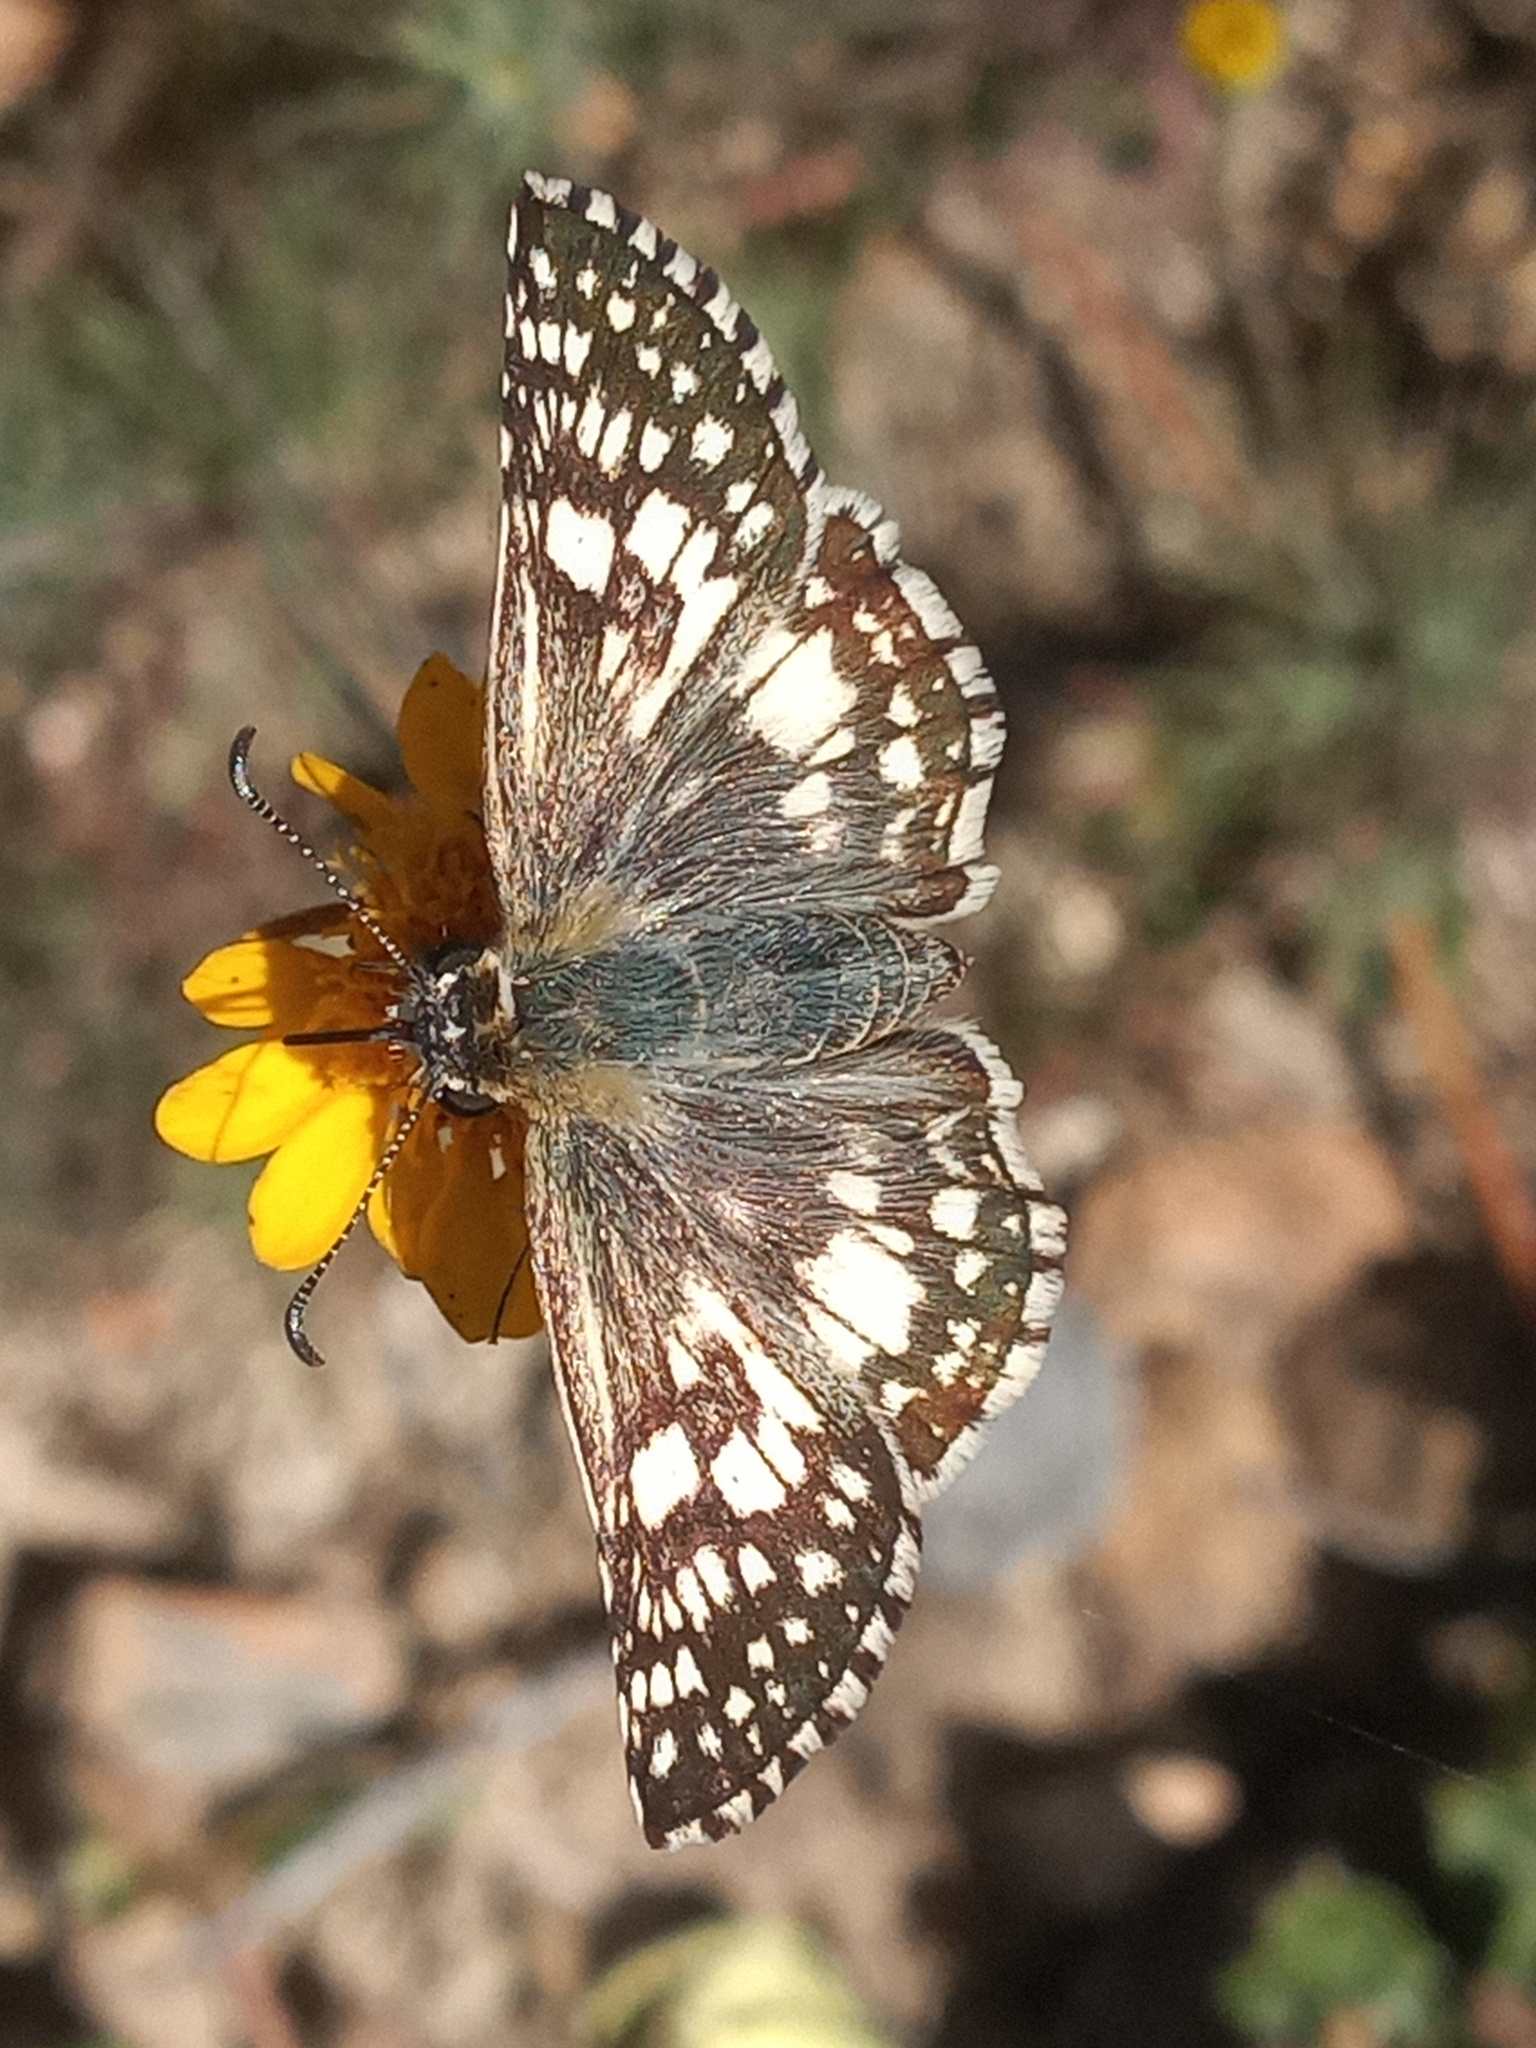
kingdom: Animalia
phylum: Arthropoda
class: Insecta
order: Lepidoptera
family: Hesperiidae
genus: Burnsius
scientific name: Burnsius albezens
